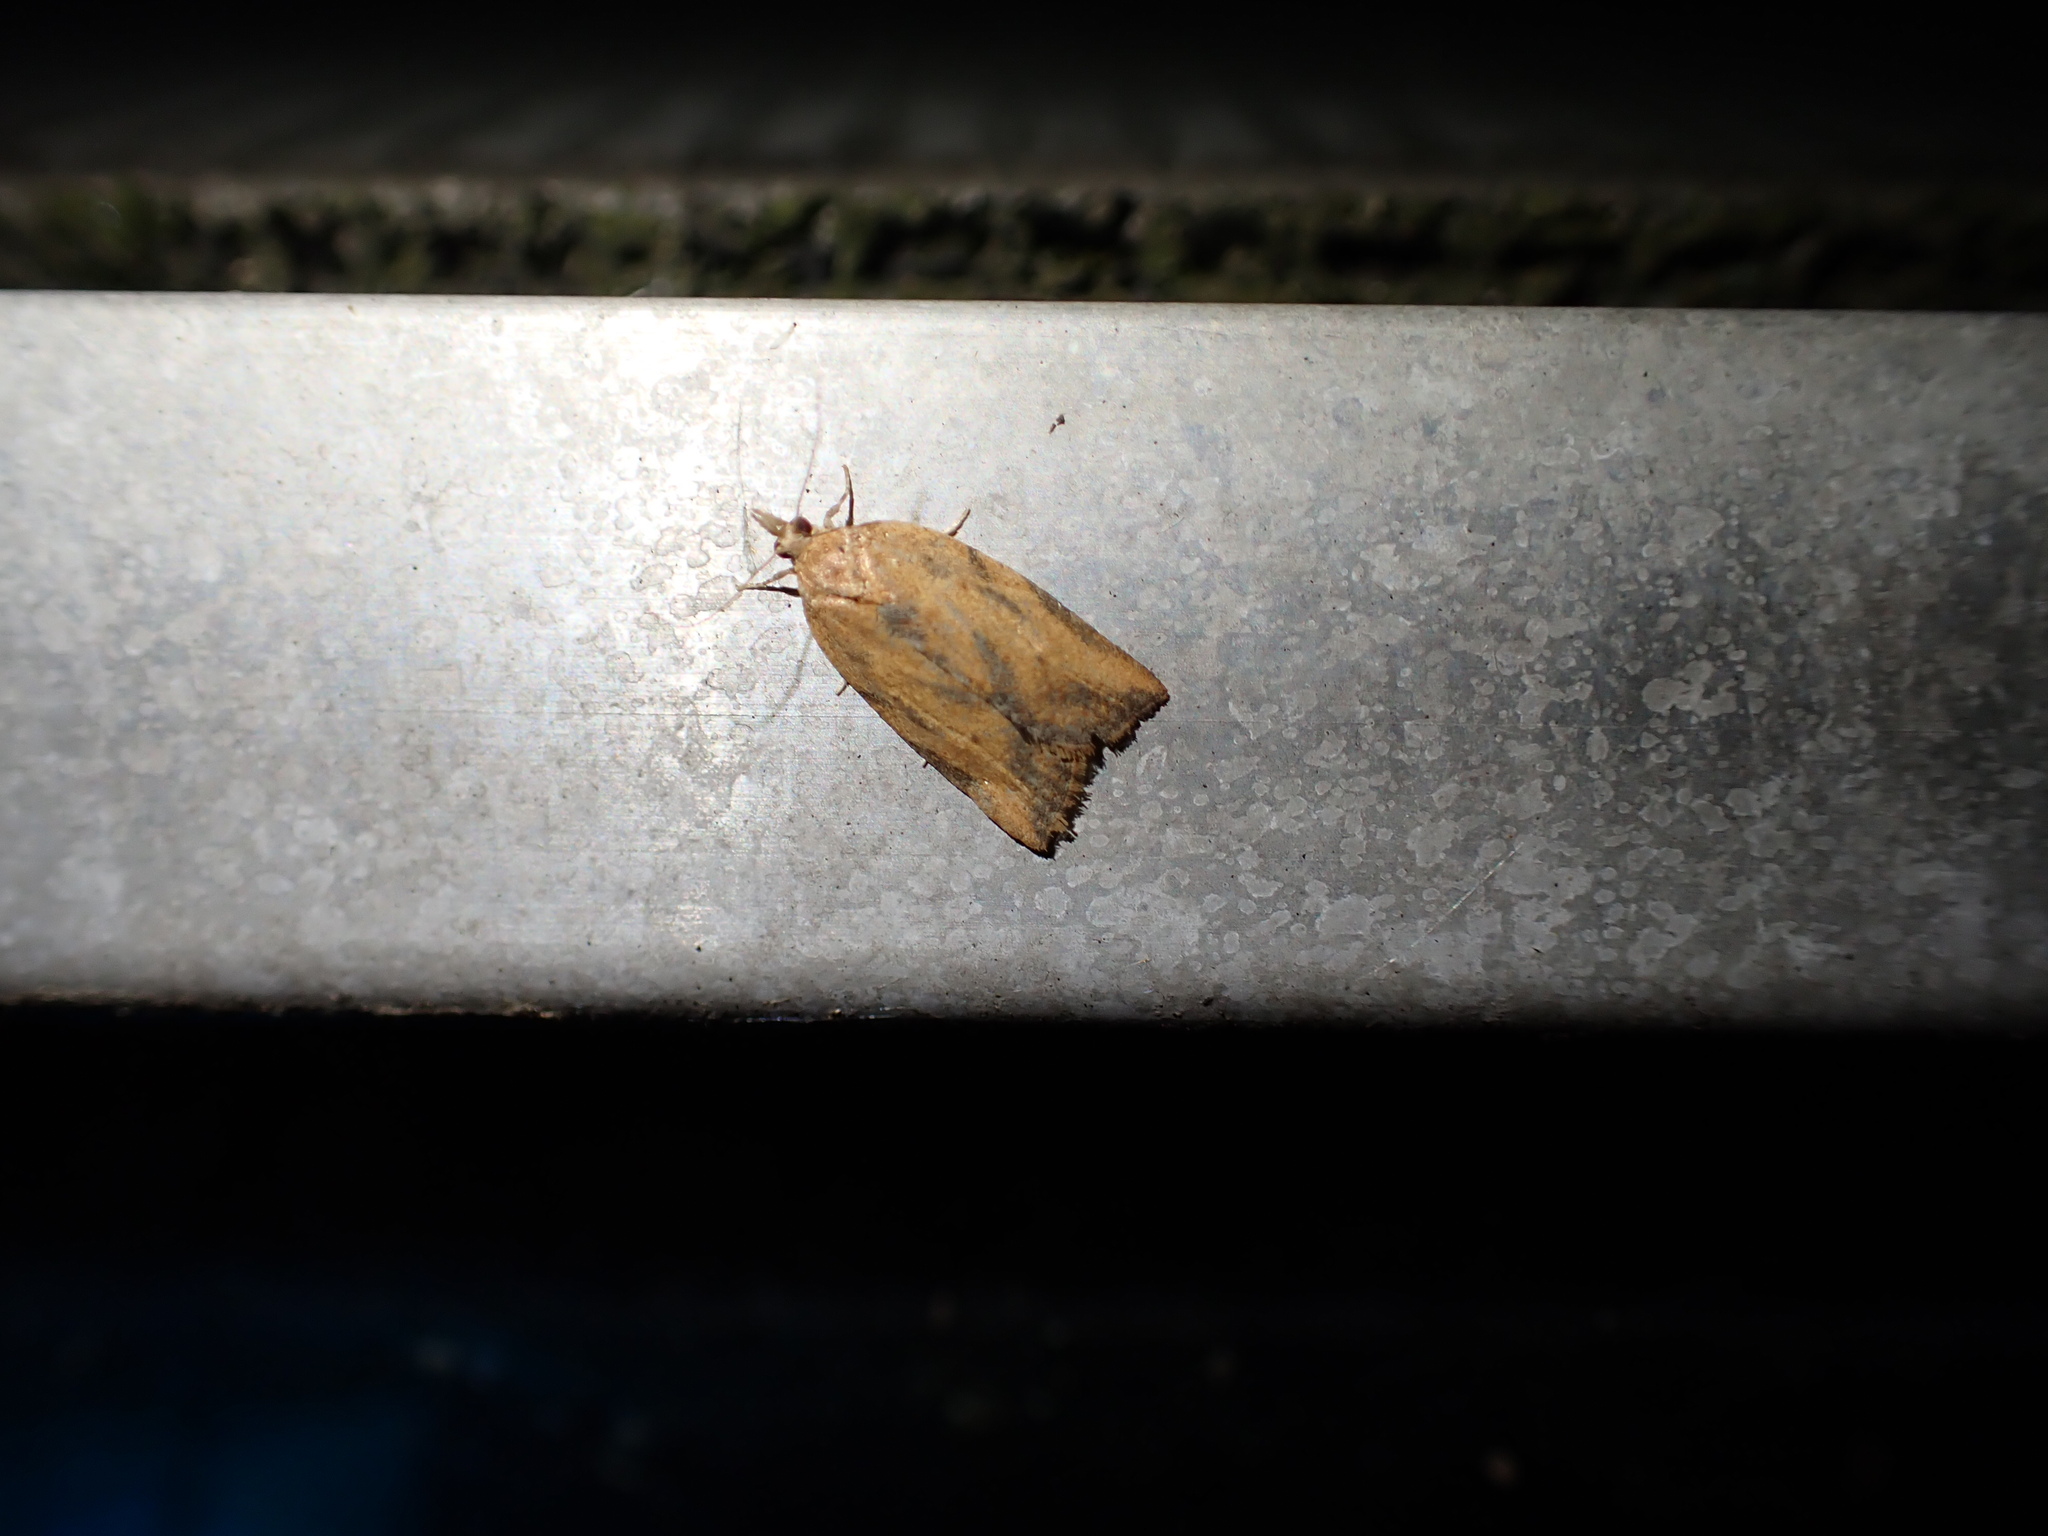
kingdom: Animalia
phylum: Arthropoda
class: Insecta
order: Lepidoptera
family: Tortricidae
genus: Epiphyas
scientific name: Epiphyas postvittana
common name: Light brown apple moth
